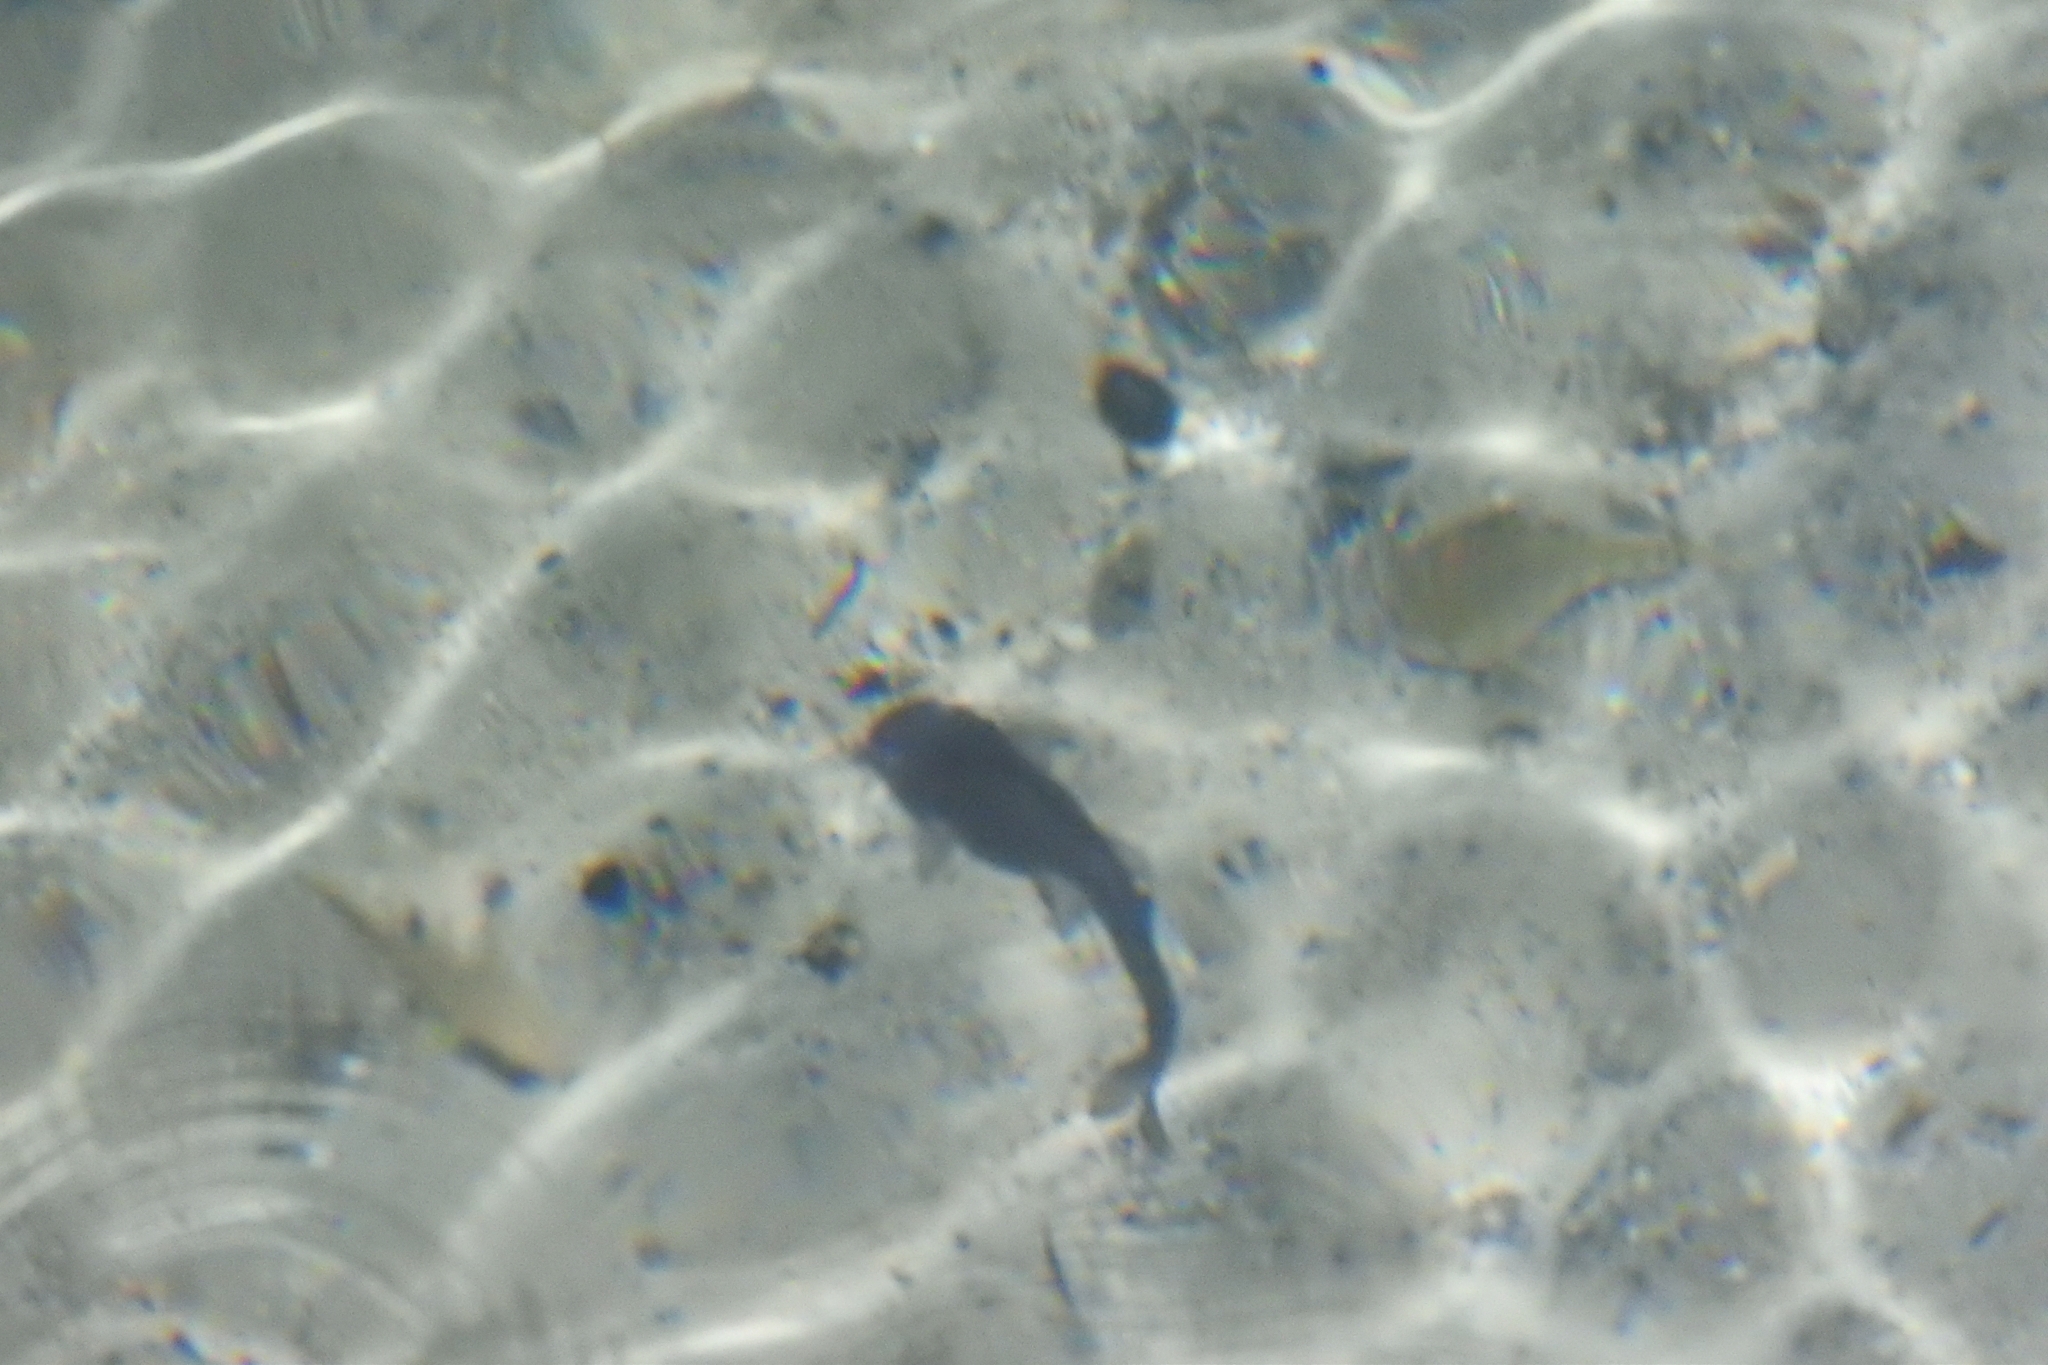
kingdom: Animalia
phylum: Chordata
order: Siluriformes
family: Heptapteridae
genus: Rhamdia
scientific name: Rhamdia guatemalensis
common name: Pale catfish
